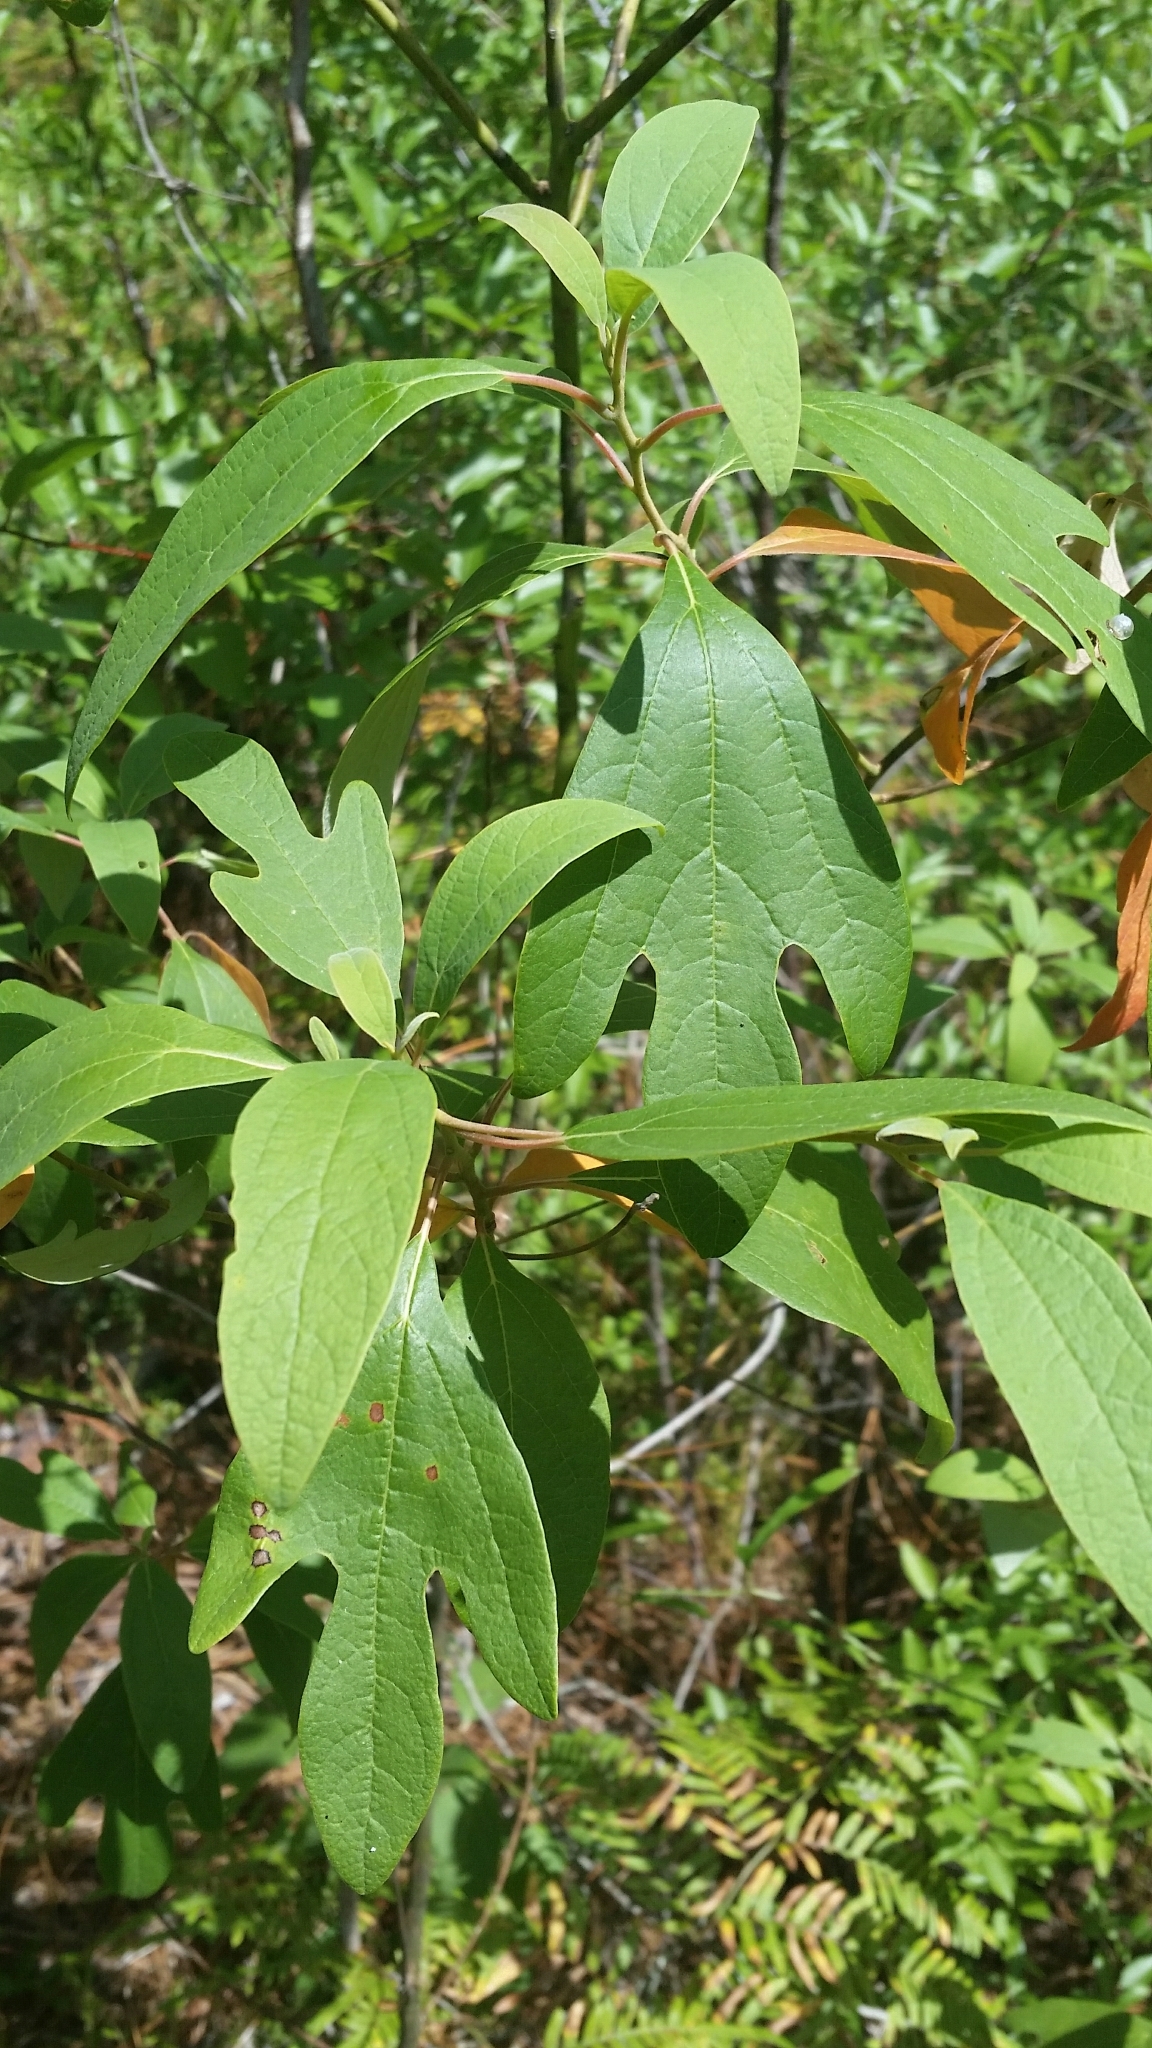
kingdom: Plantae
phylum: Tracheophyta
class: Magnoliopsida
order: Laurales
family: Lauraceae
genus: Sassafras
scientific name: Sassafras albidum
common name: Sassafras
